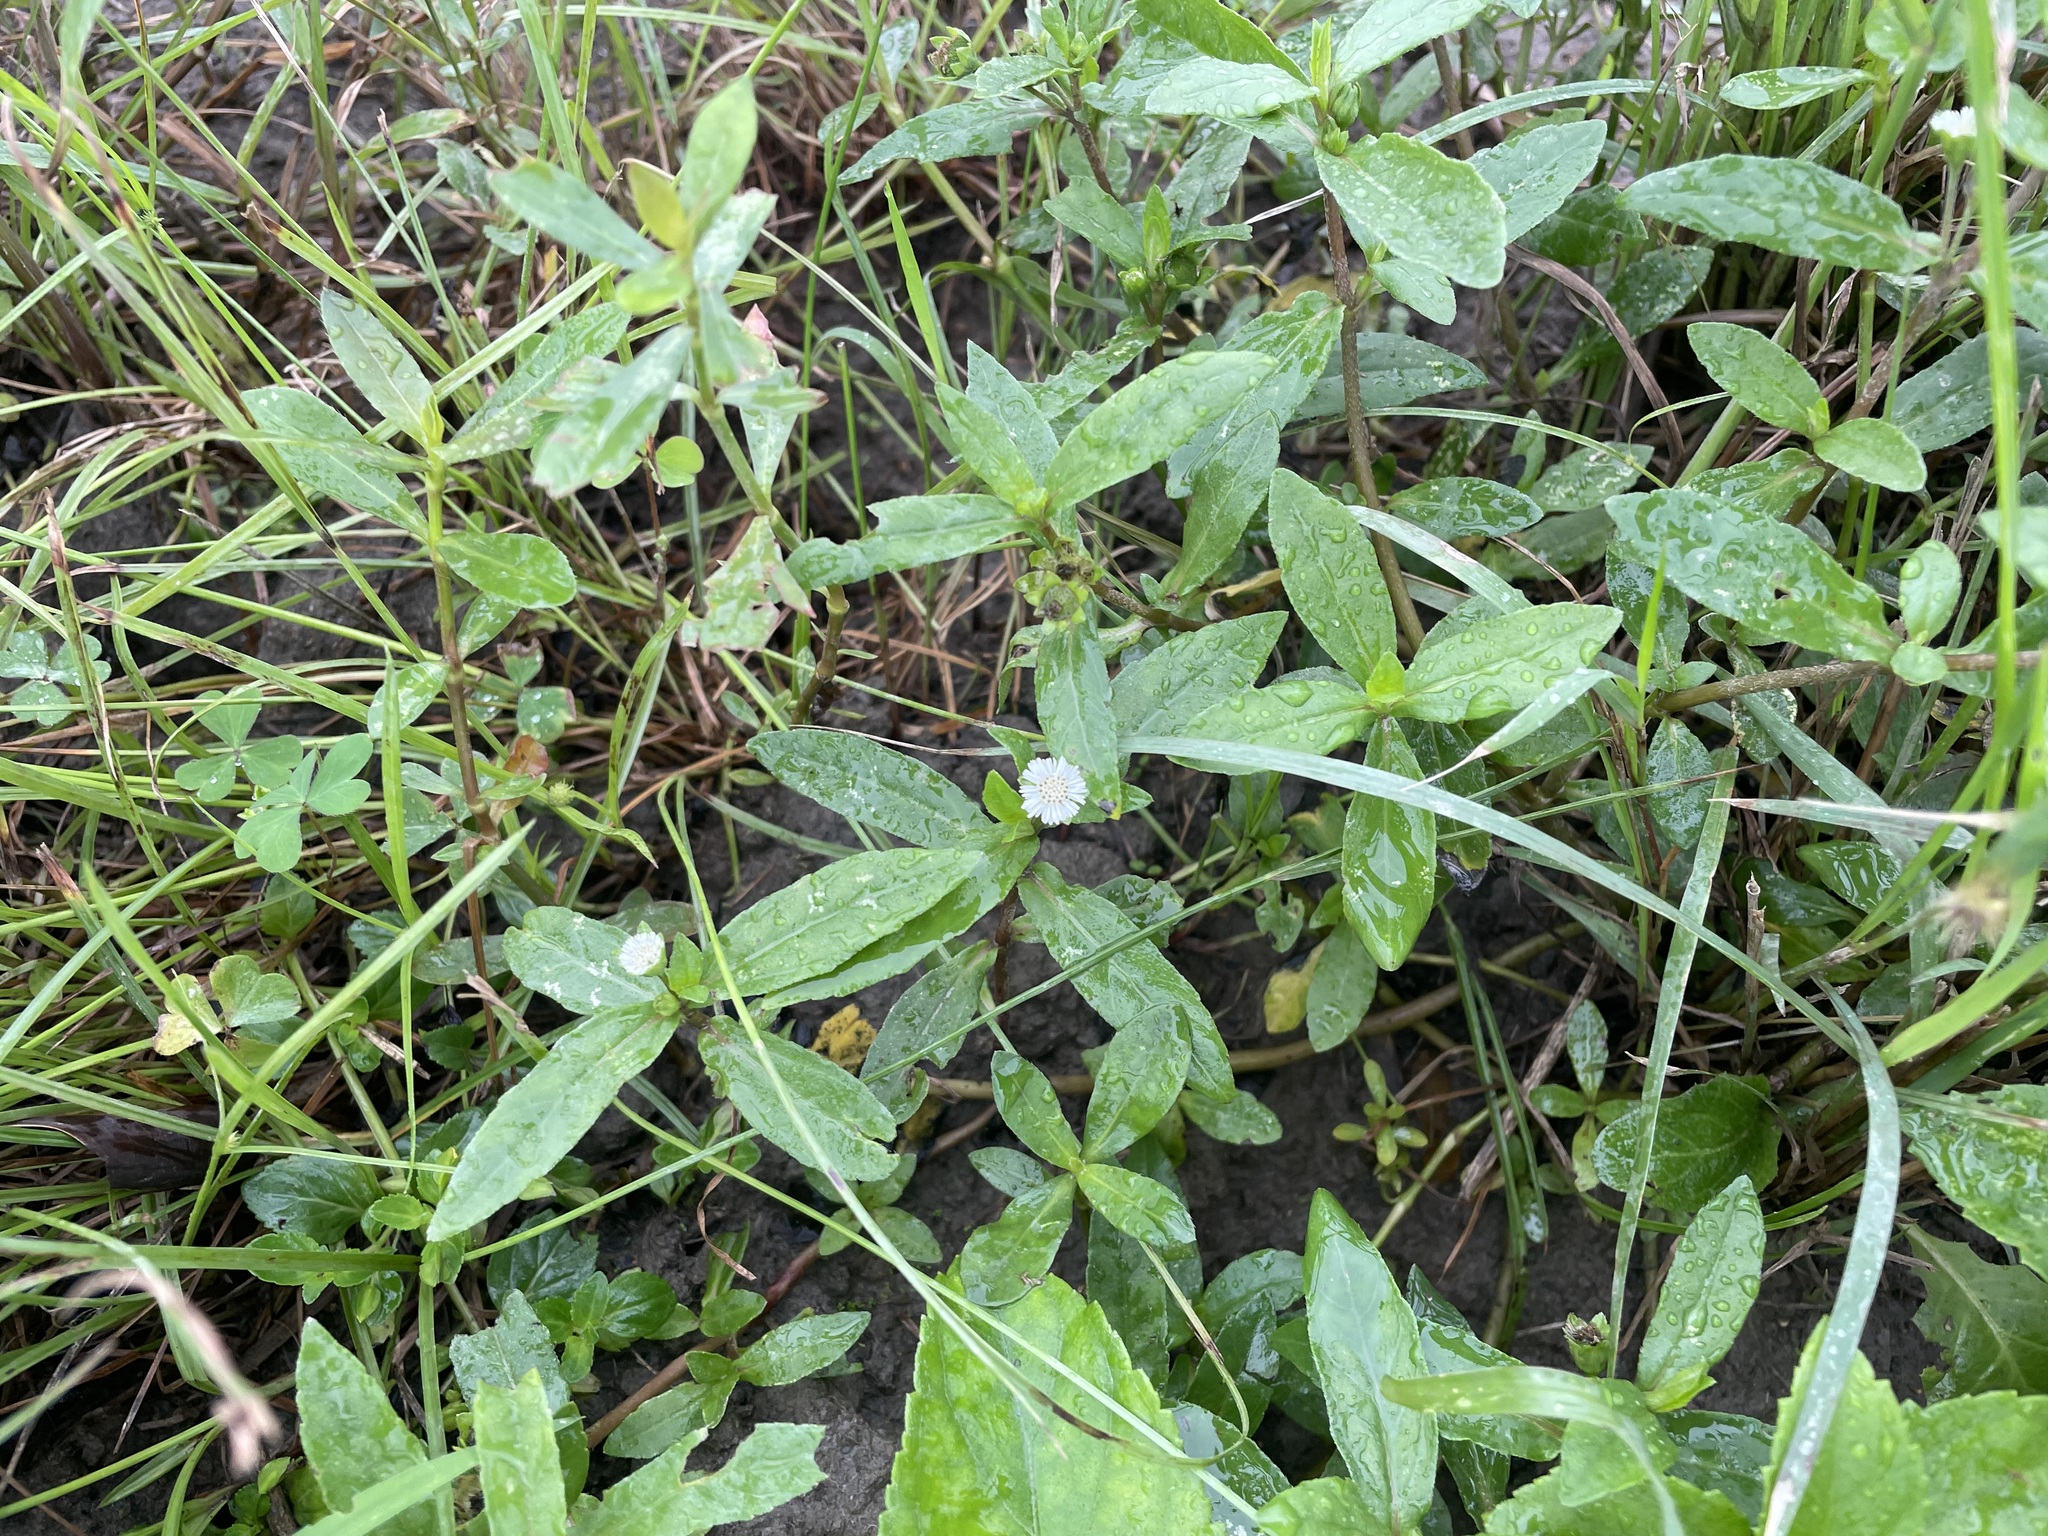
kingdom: Plantae
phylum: Tracheophyta
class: Magnoliopsida
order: Caryophyllales
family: Amaranthaceae
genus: Alternanthera
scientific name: Alternanthera philoxeroides
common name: Alligatorweed
